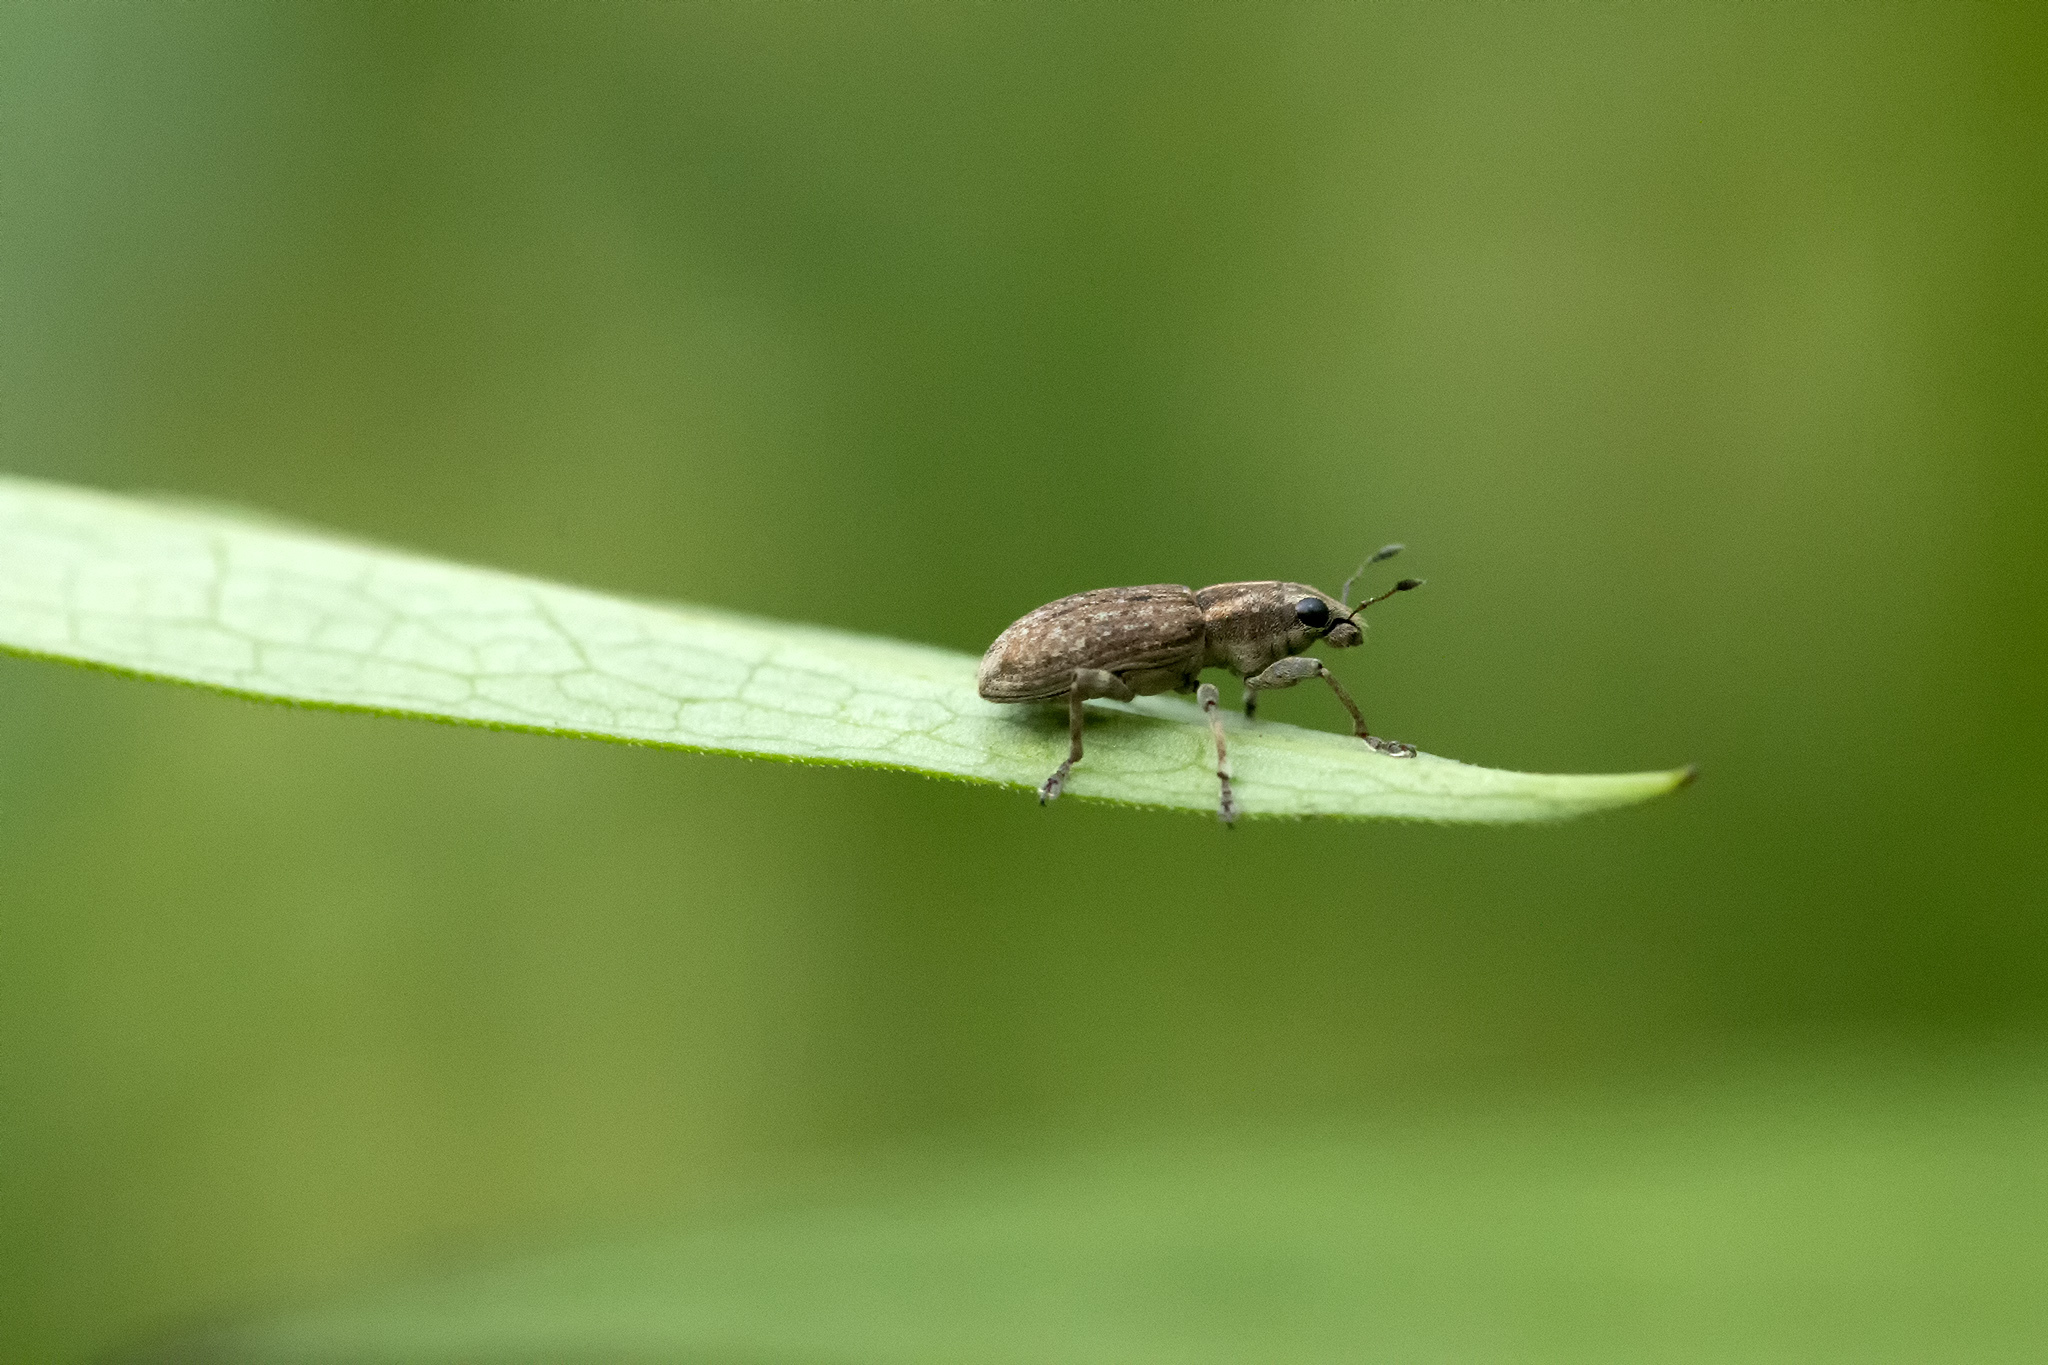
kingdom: Animalia
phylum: Arthropoda
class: Insecta
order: Coleoptera
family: Curculionidae
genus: Sitona
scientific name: Sitona obsoletus
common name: Weevil
